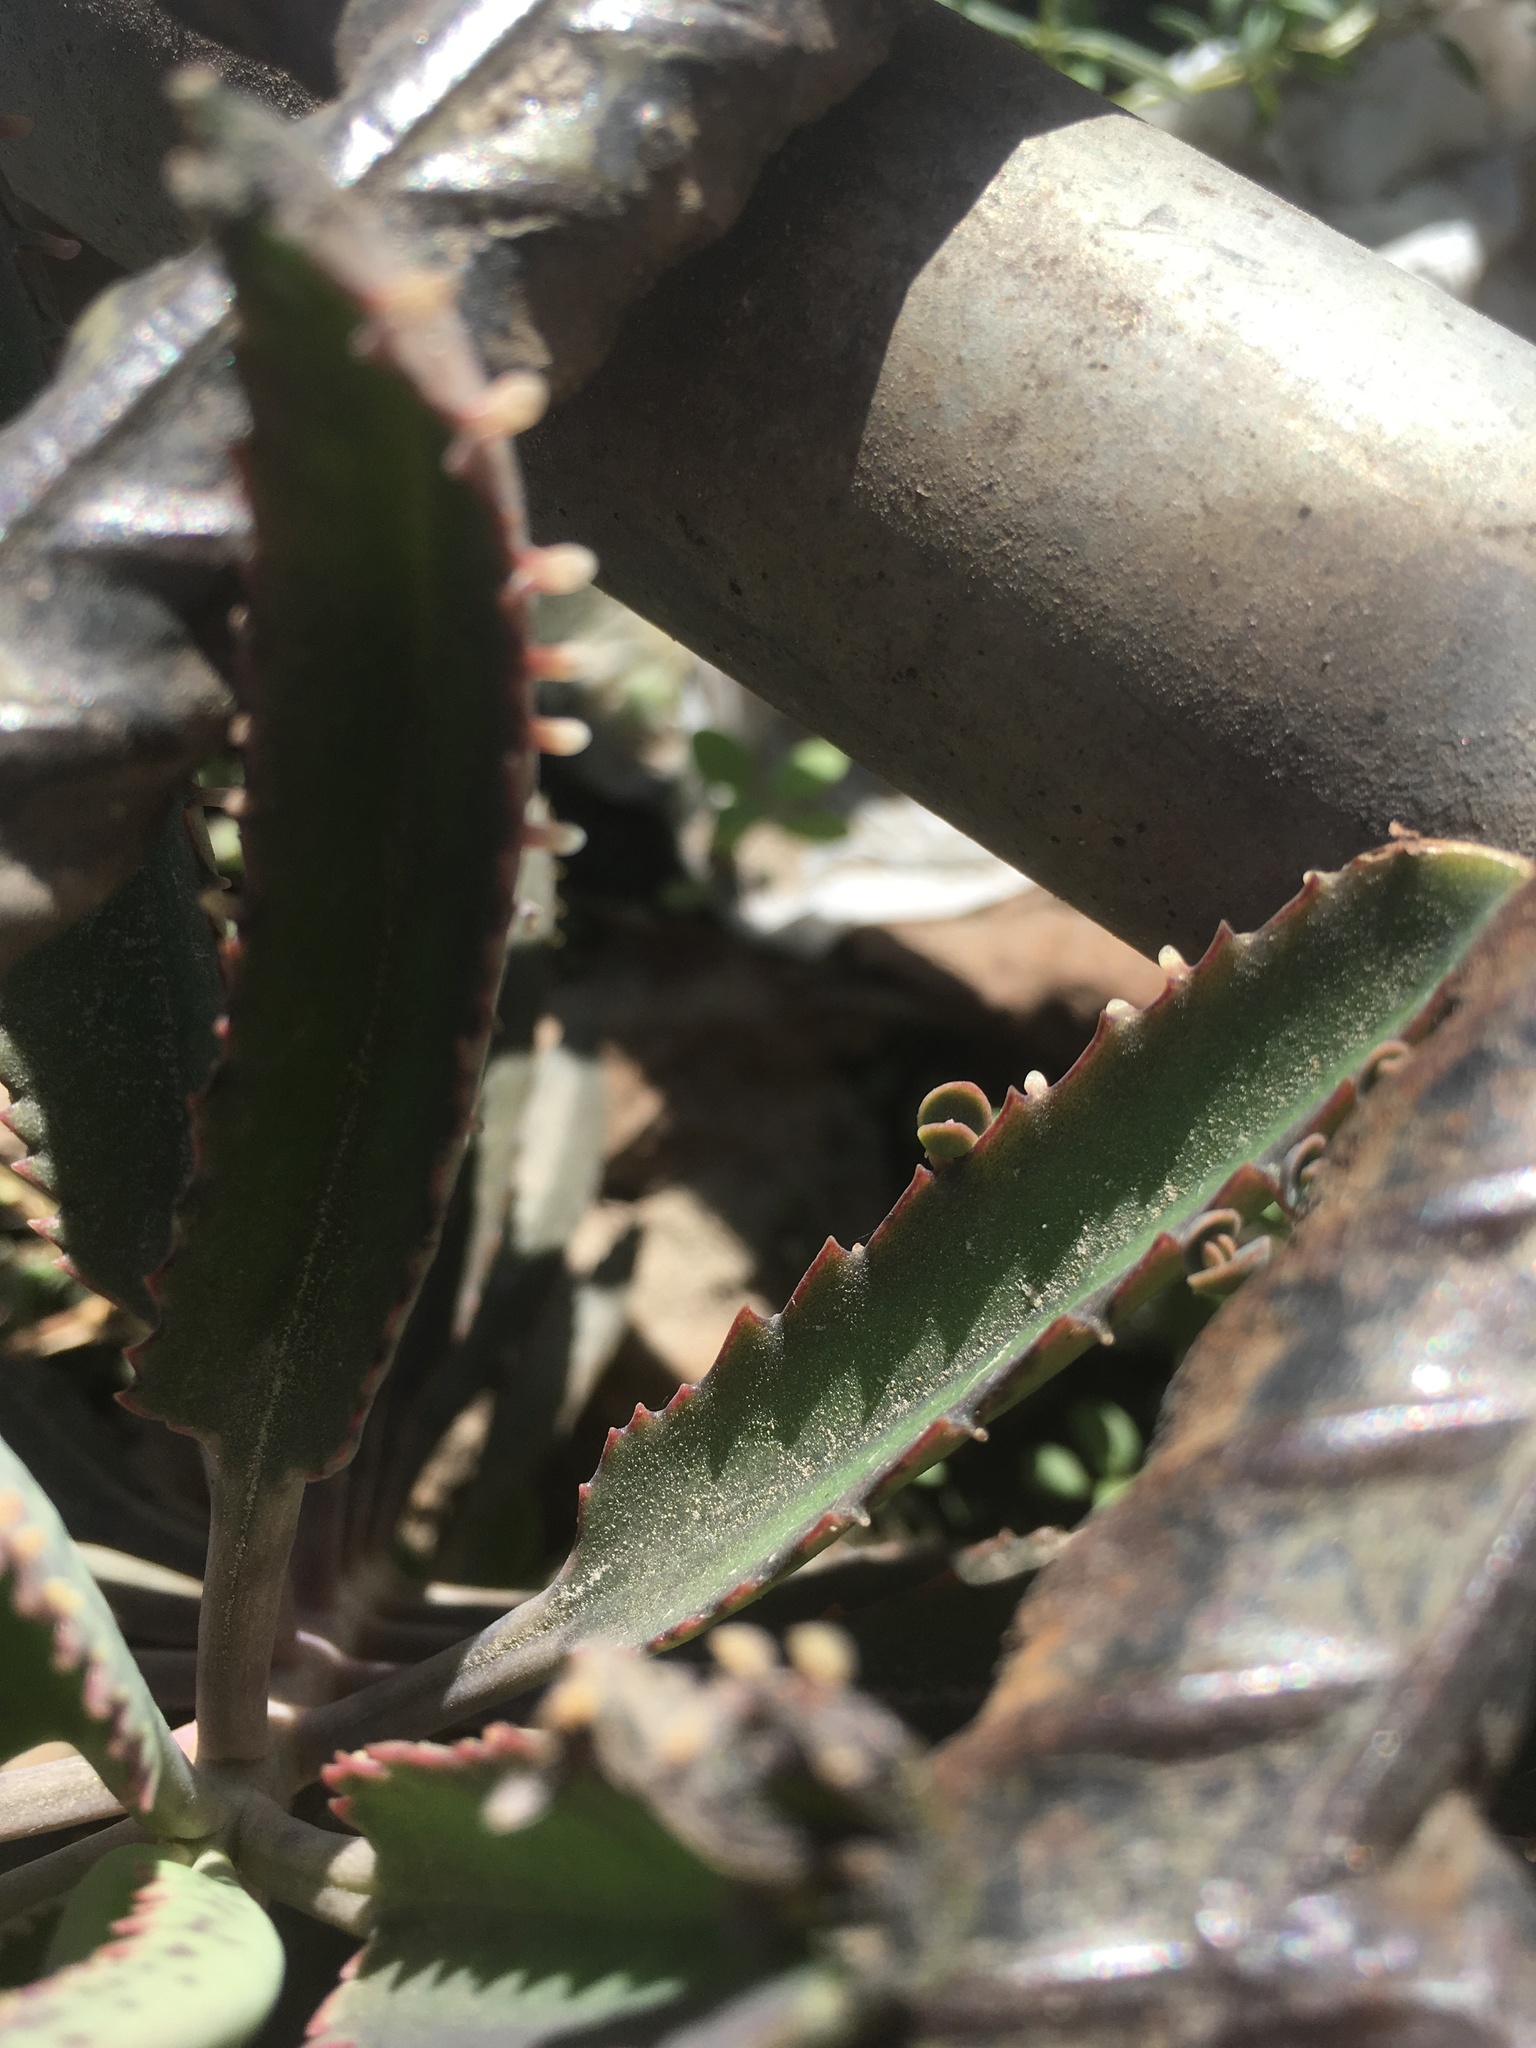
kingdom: Plantae
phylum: Tracheophyta
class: Magnoliopsida
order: Saxifragales
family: Crassulaceae
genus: Kalanchoe
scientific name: Kalanchoe houghtonii
